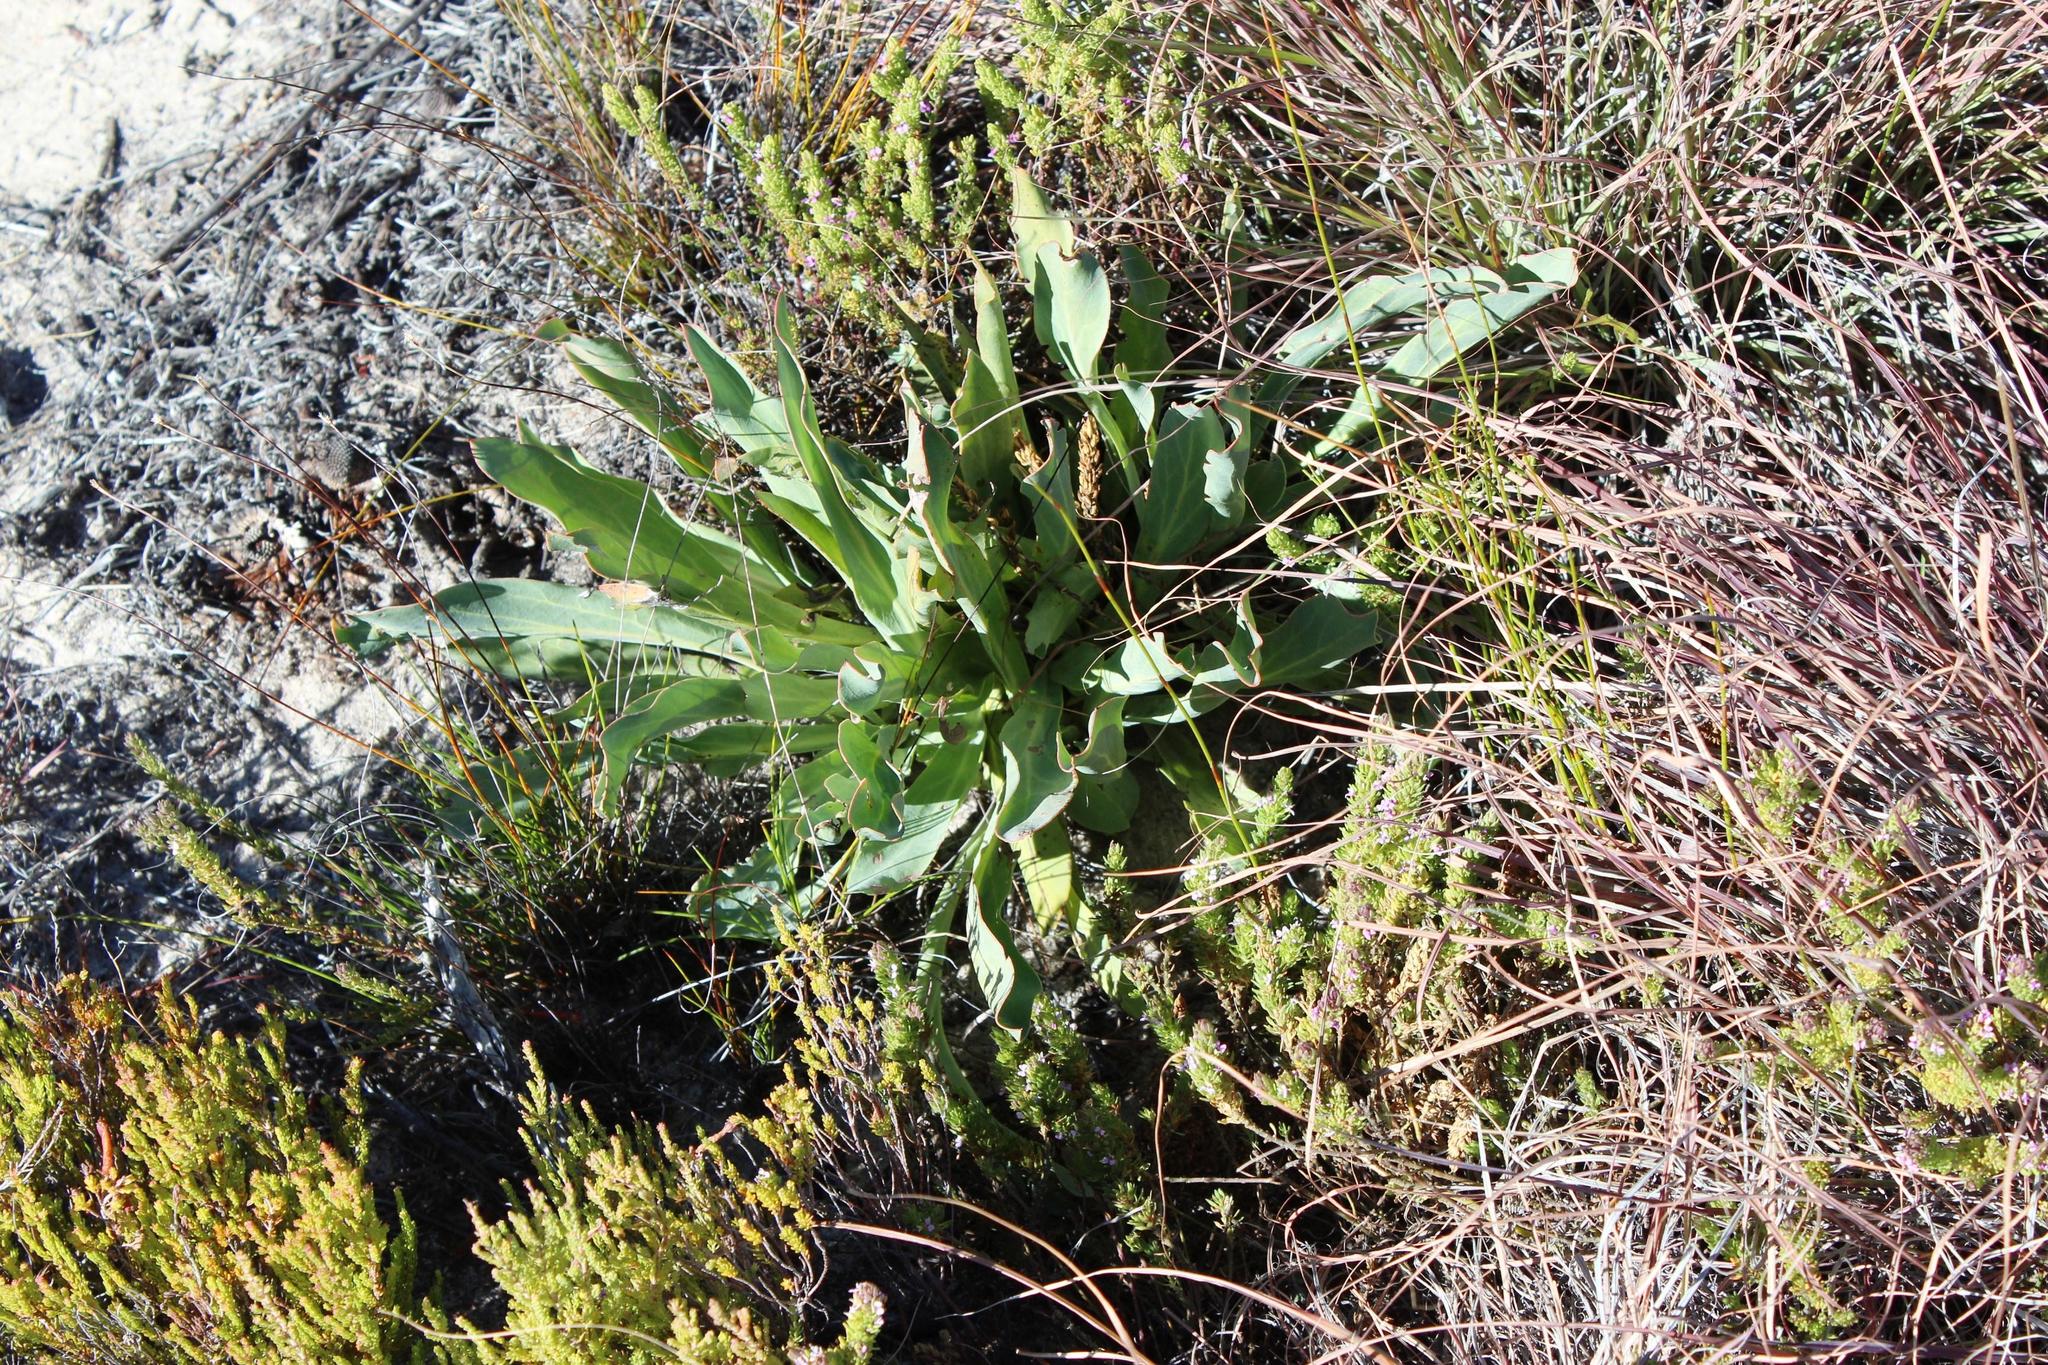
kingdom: Plantae
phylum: Tracheophyta
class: Magnoliopsida
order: Proteales
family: Proteaceae
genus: Protea
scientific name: Protea laevis
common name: Smooth-leaf sugarbush
